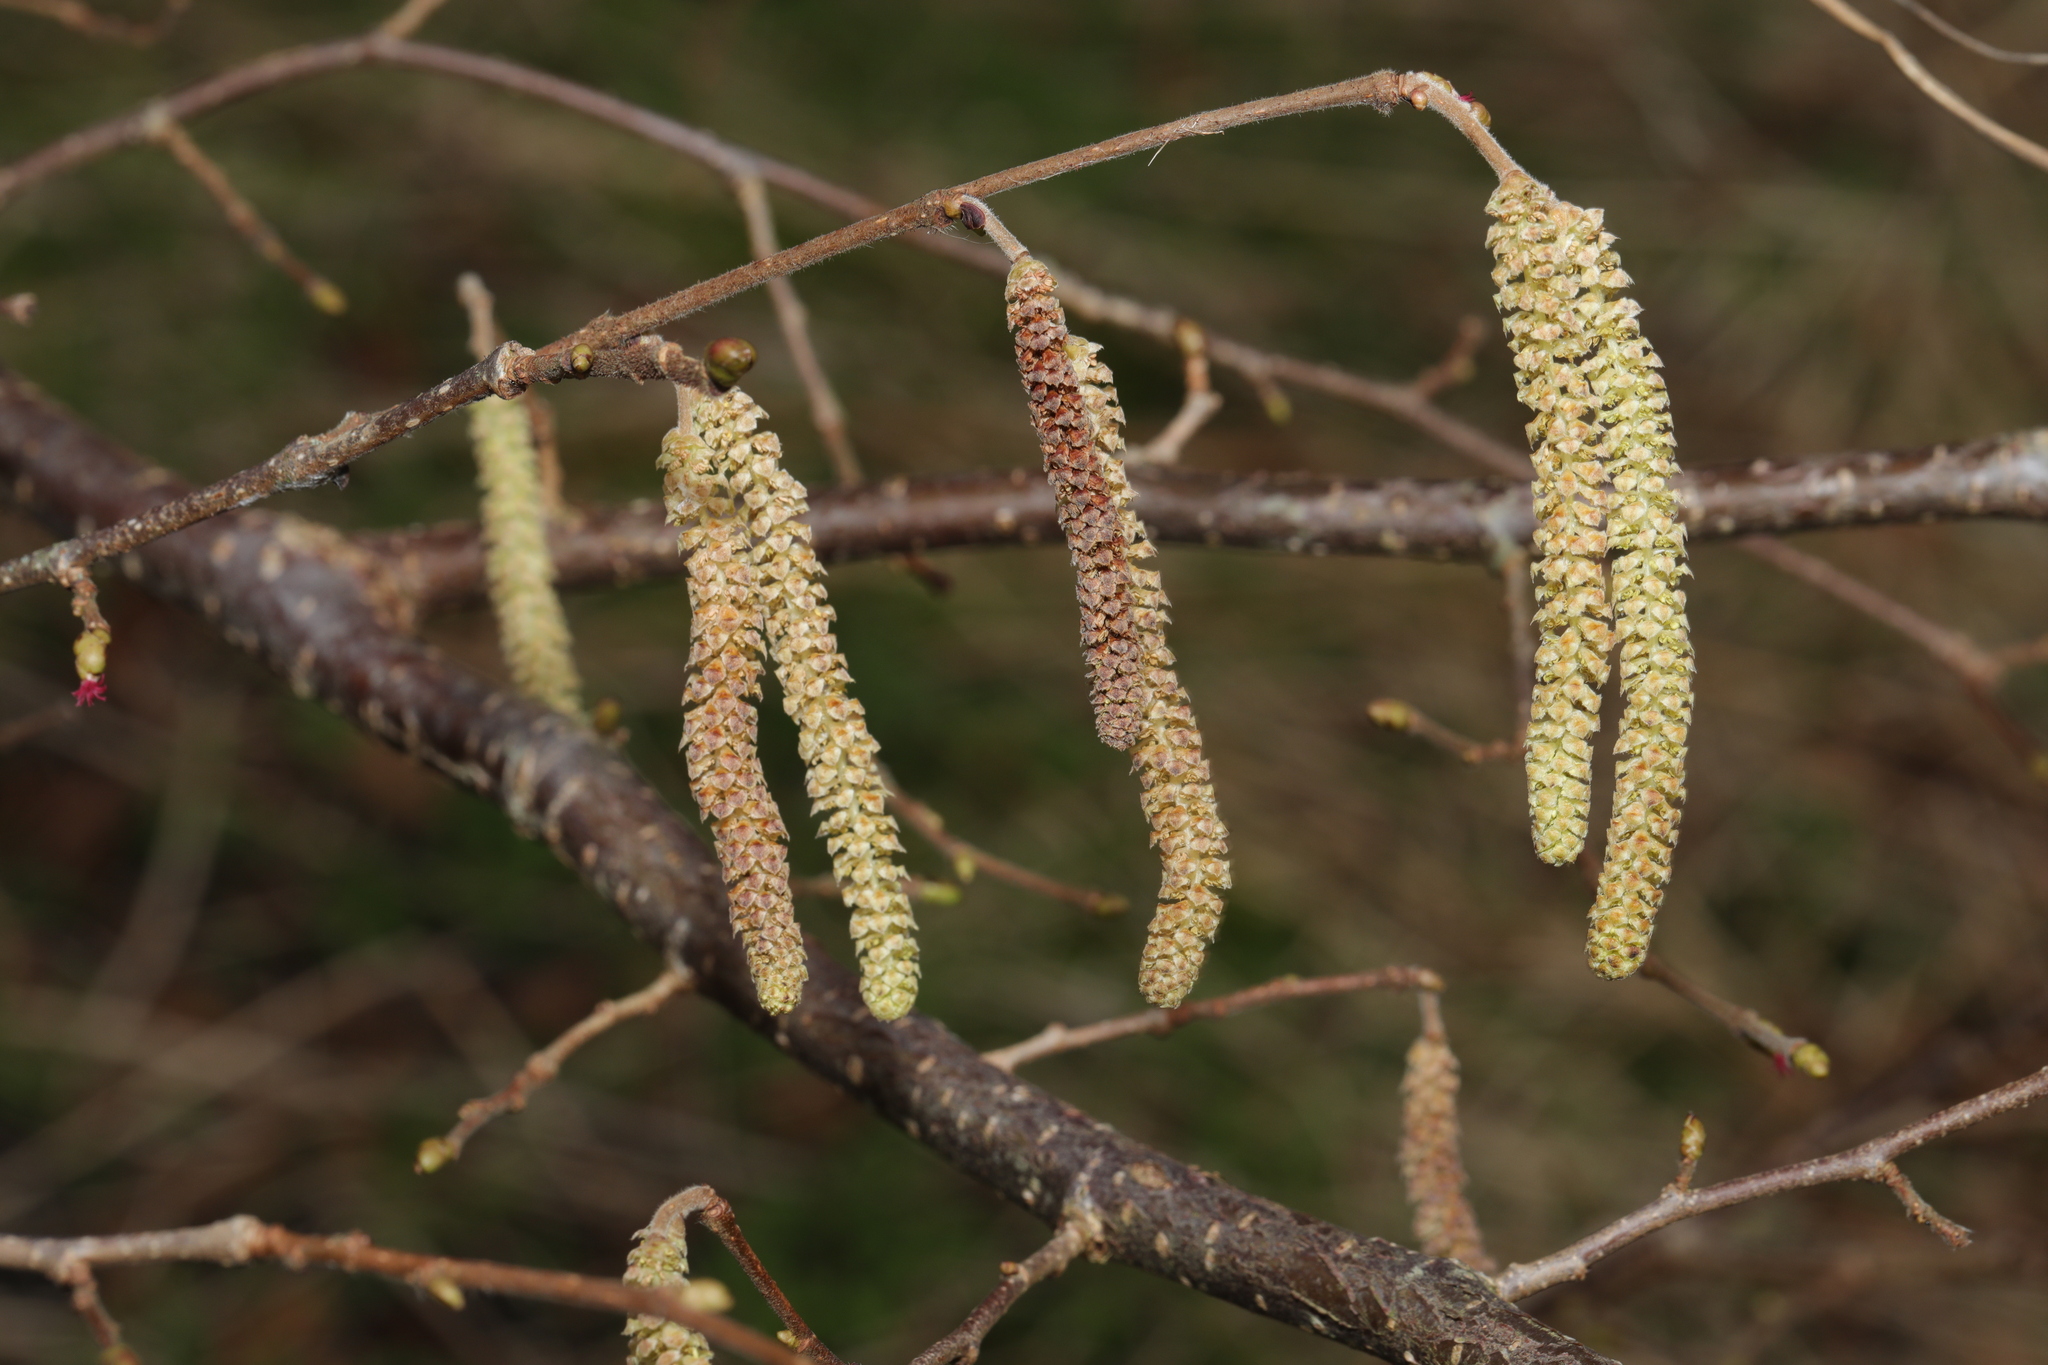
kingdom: Plantae
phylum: Tracheophyta
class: Magnoliopsida
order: Fagales
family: Betulaceae
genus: Corylus
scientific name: Corylus avellana
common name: European hazel
